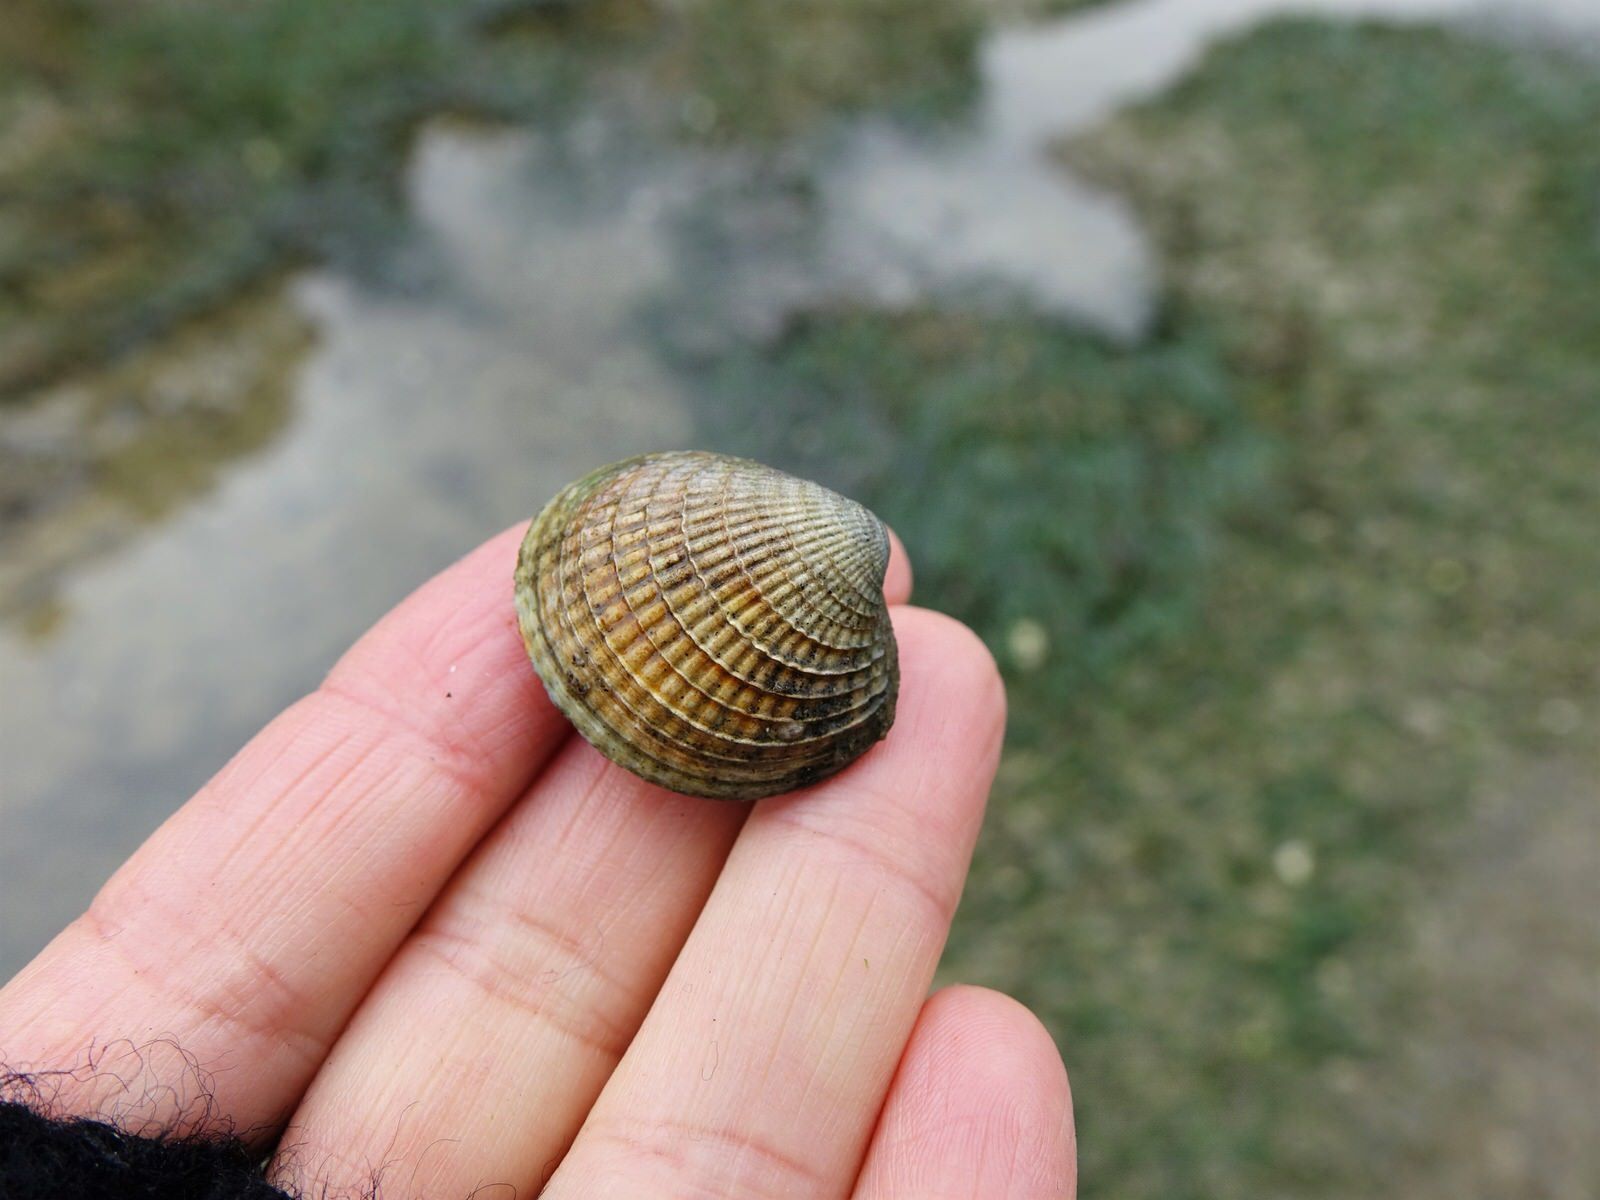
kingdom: Animalia
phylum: Mollusca
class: Bivalvia
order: Venerida
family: Veneridae
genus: Austrovenus
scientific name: Austrovenus stutchburyi
